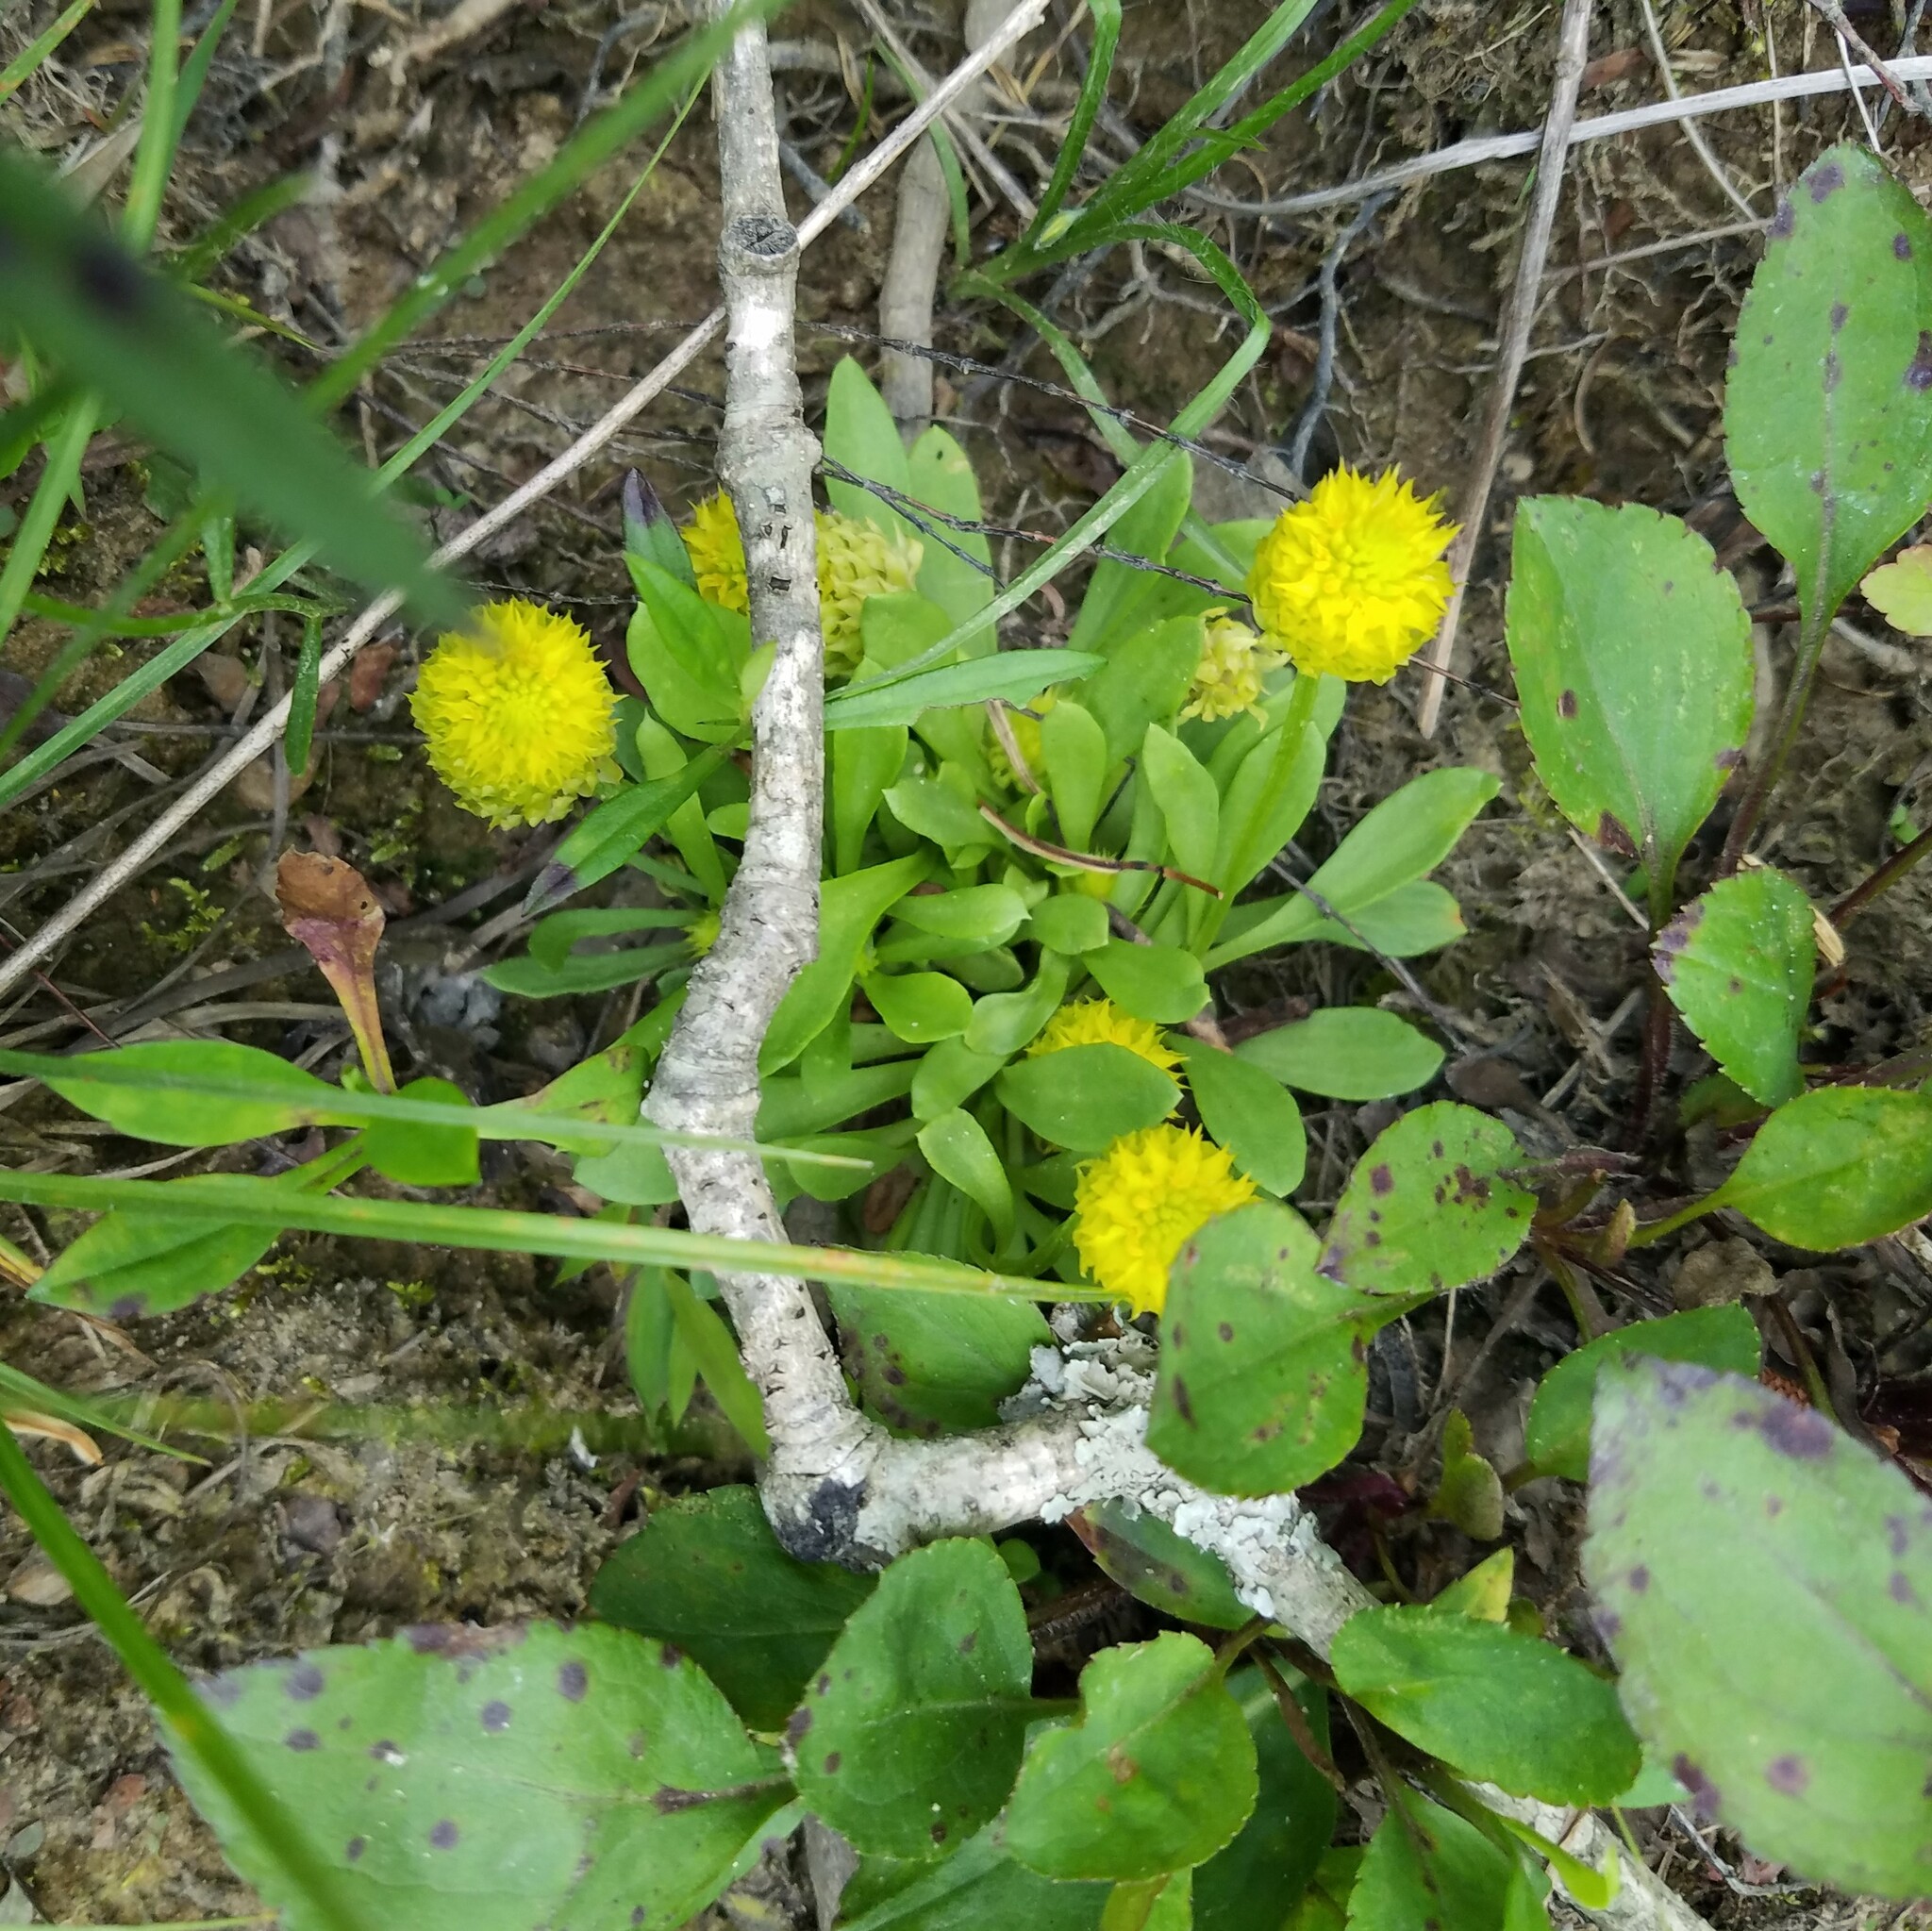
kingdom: Plantae
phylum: Tracheophyta
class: Magnoliopsida
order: Fabales
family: Polygalaceae
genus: Polygala
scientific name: Polygala nana
